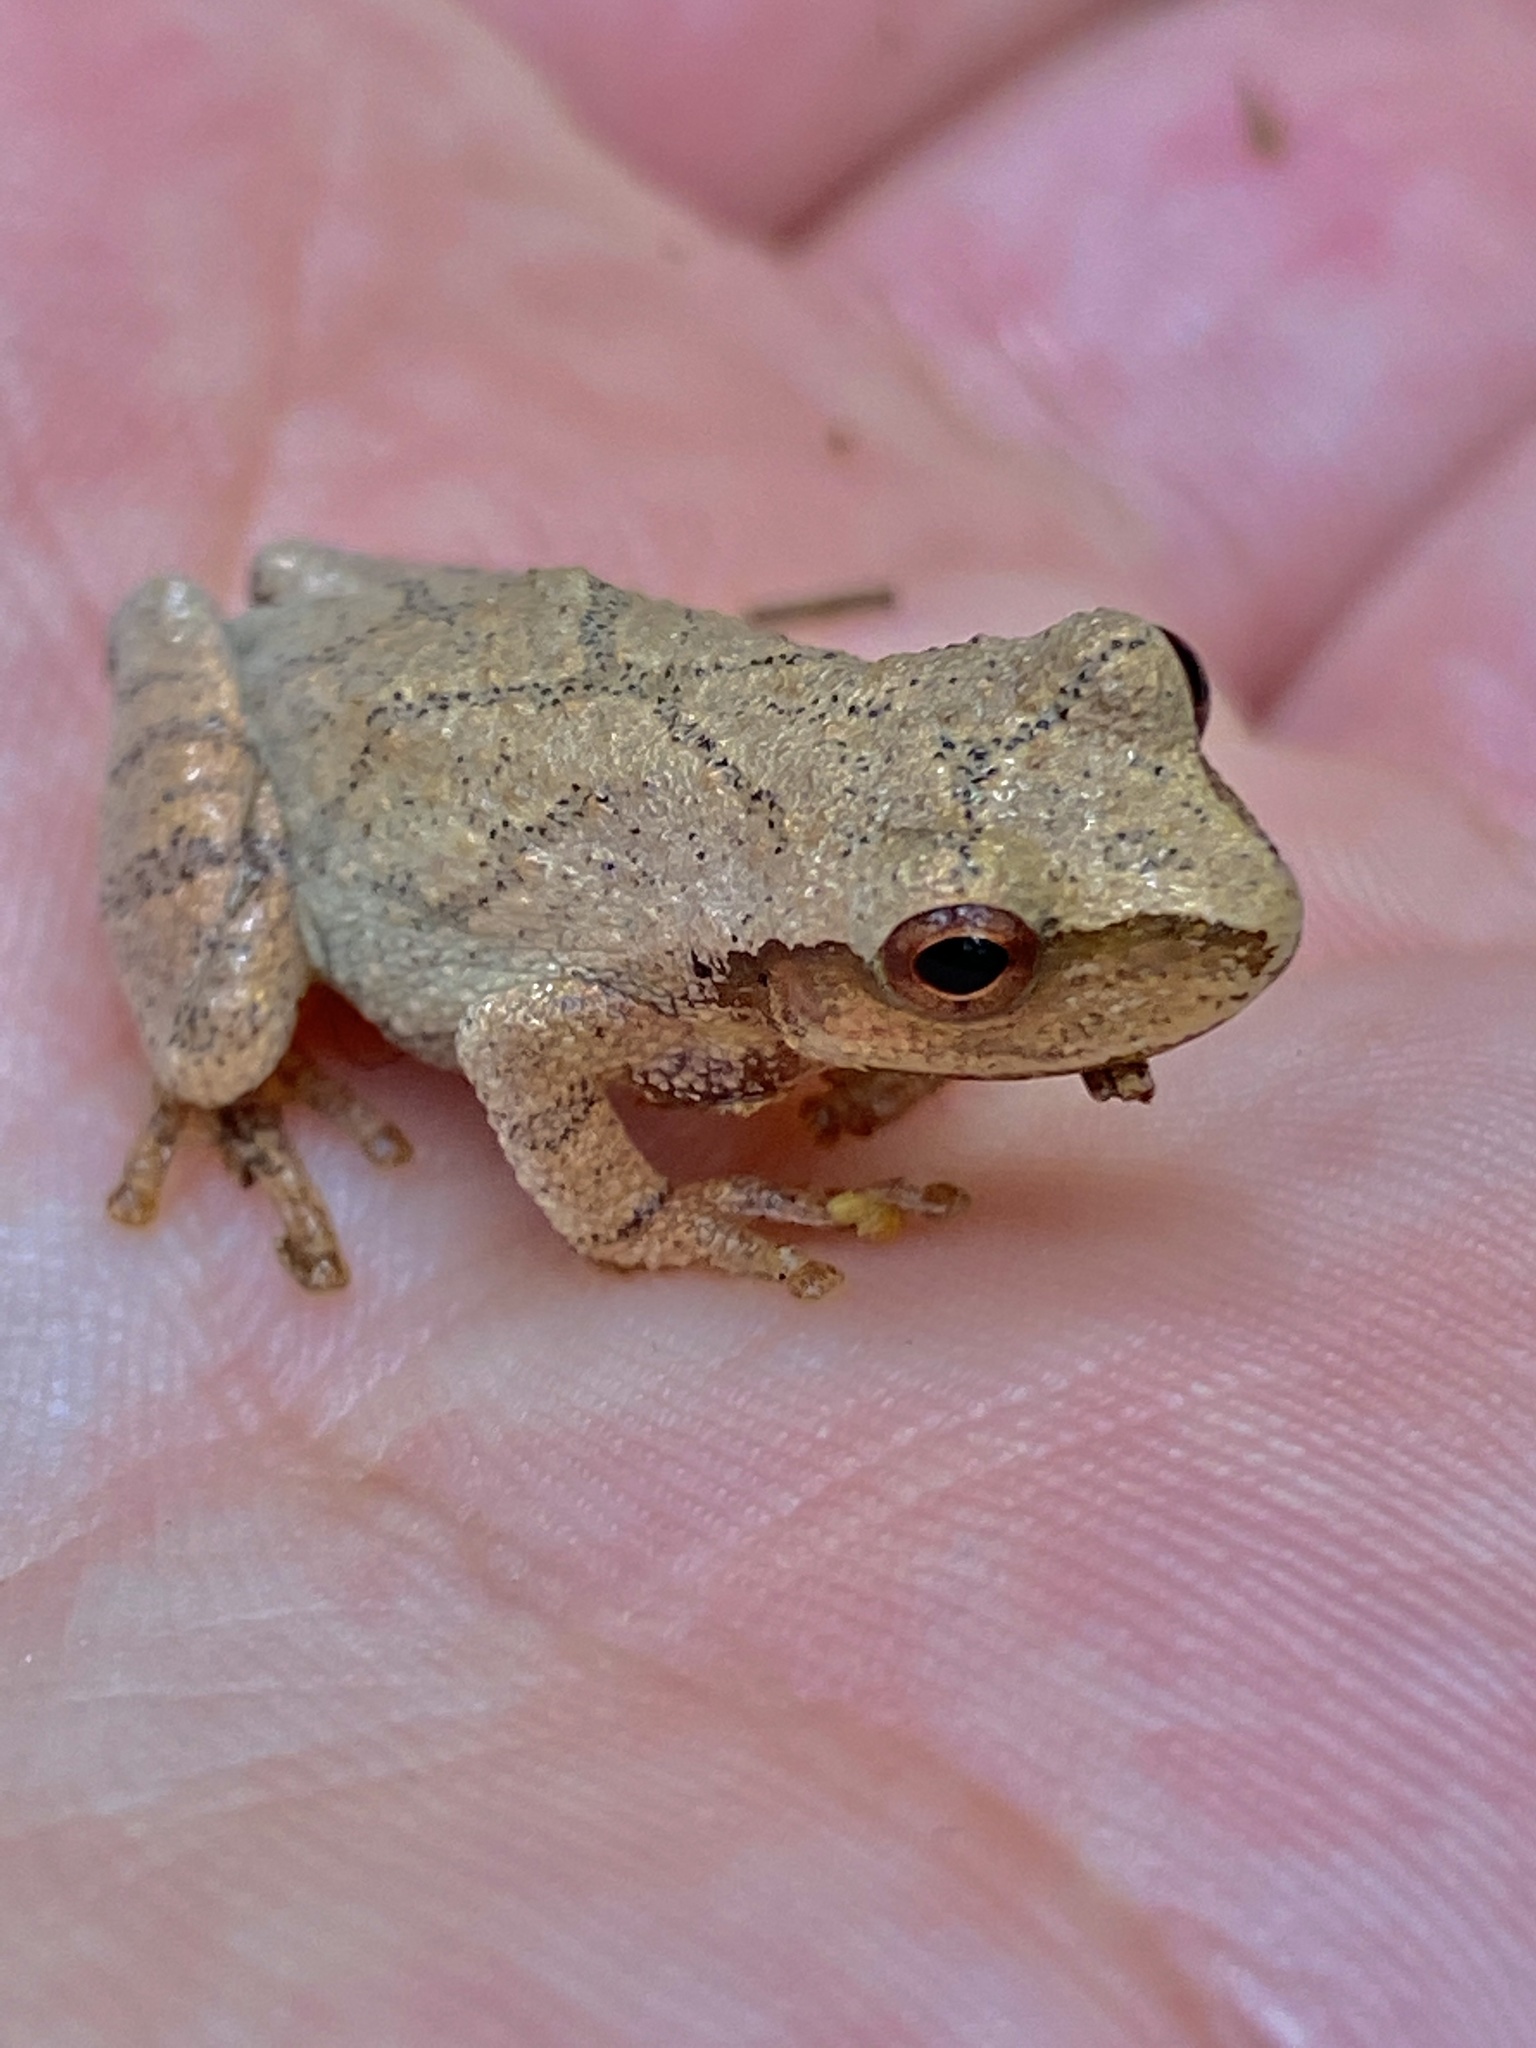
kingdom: Animalia
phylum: Chordata
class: Amphibia
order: Anura
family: Hylidae
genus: Pseudacris
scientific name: Pseudacris crucifer
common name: Spring peeper
